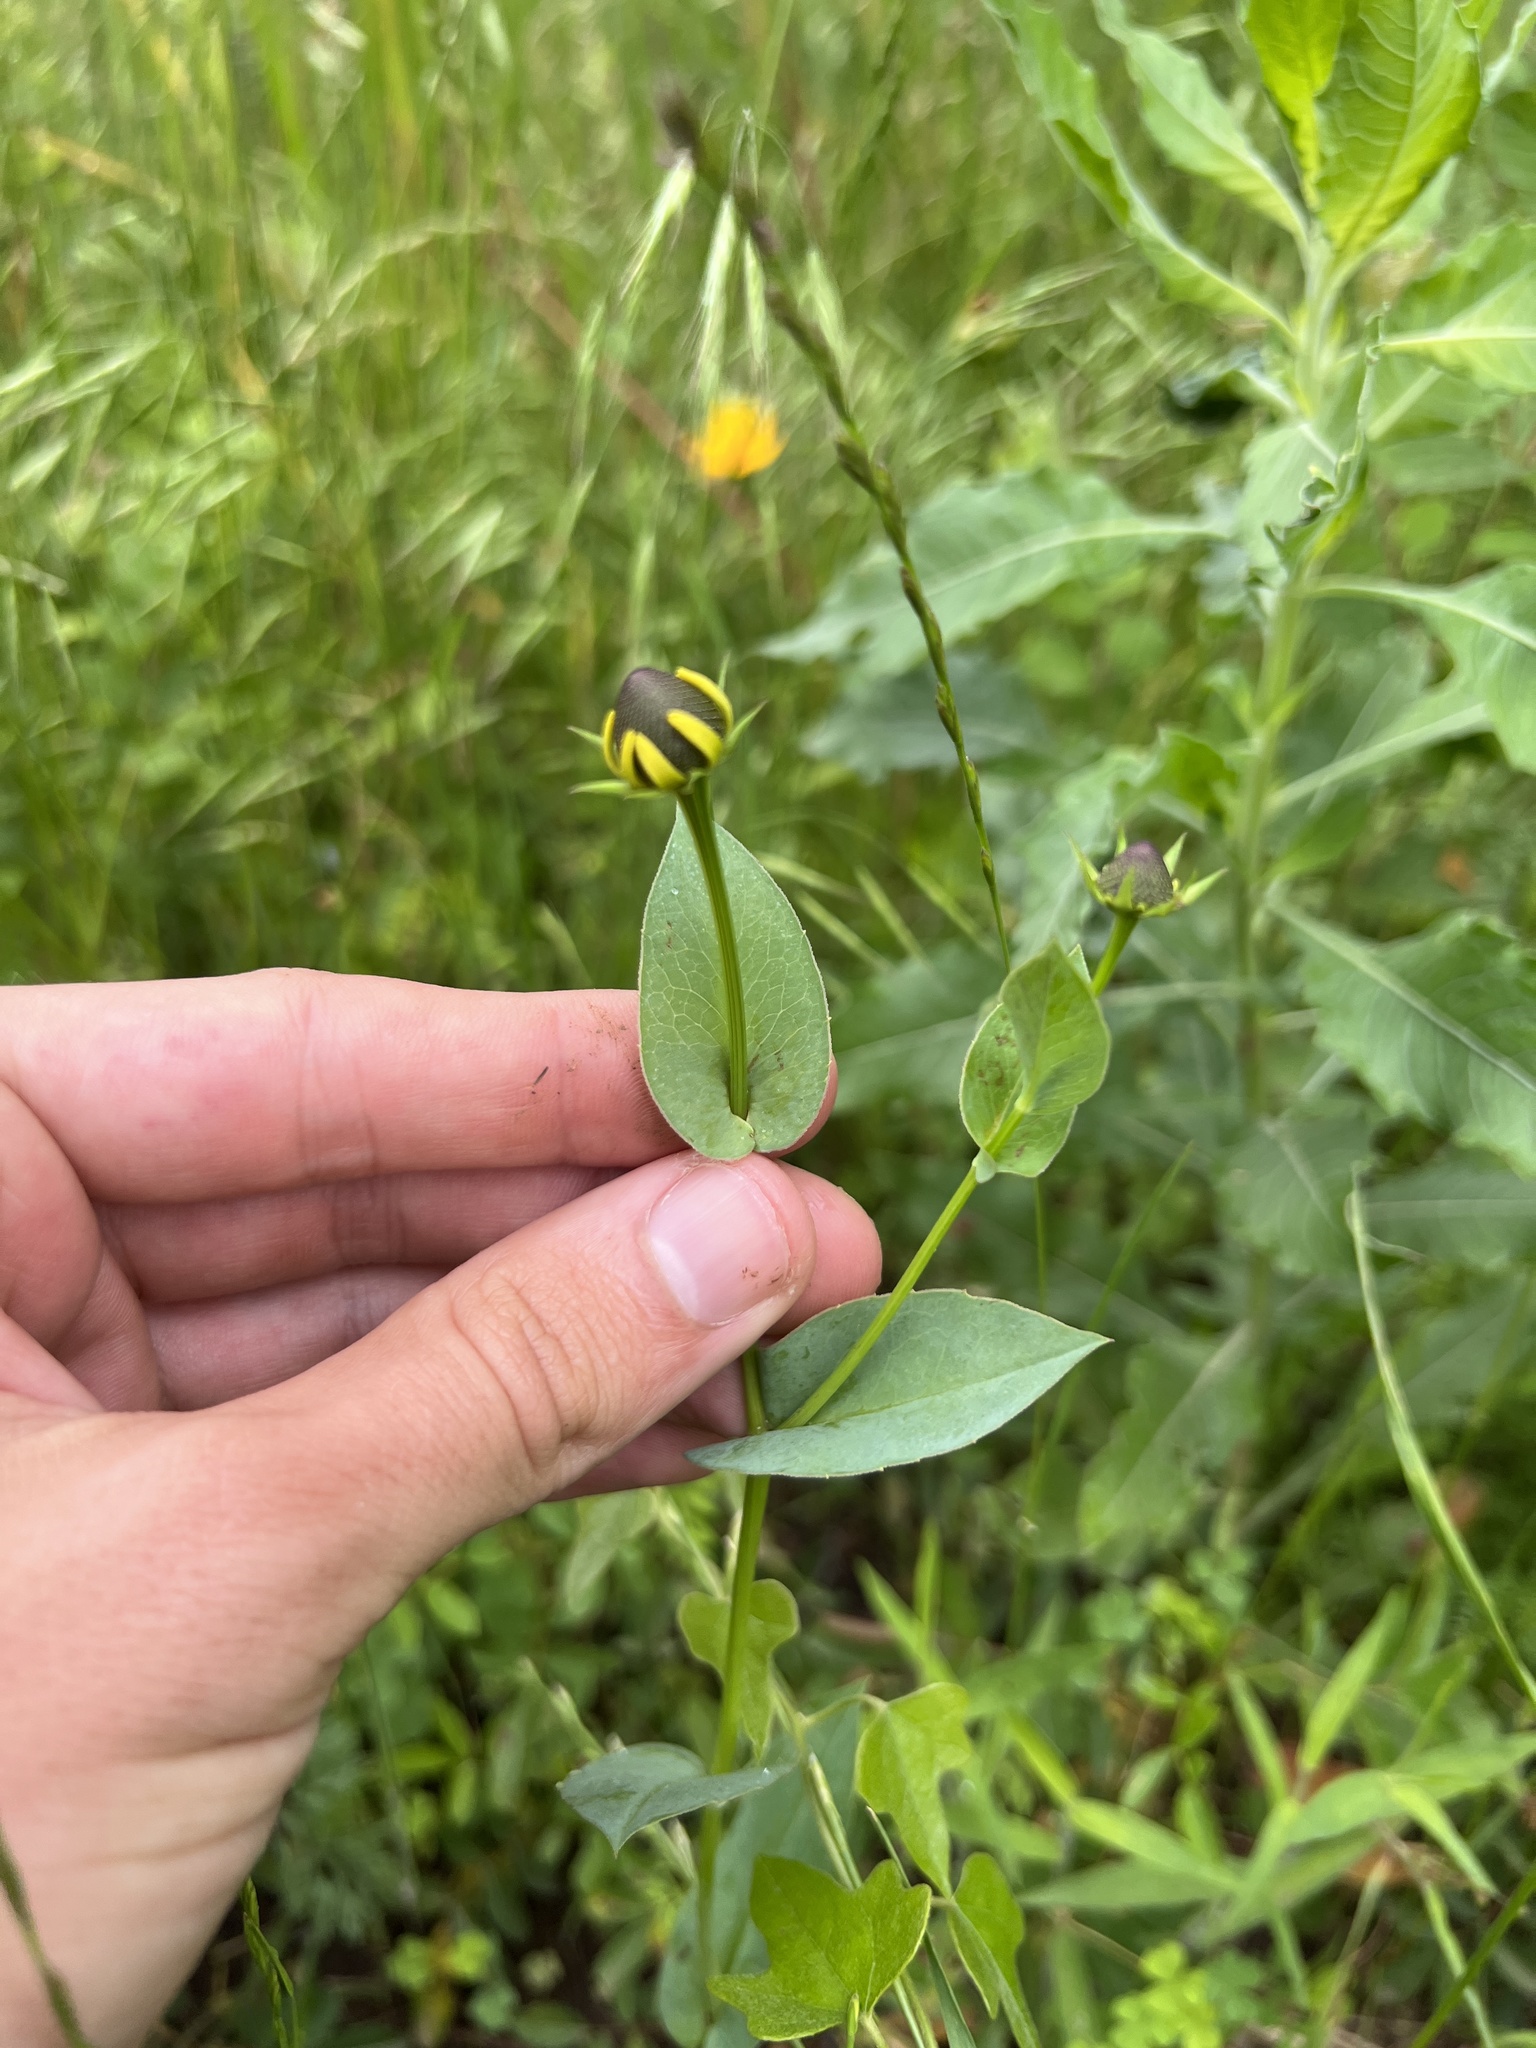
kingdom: Plantae
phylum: Tracheophyta
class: Magnoliopsida
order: Asterales
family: Asteraceae
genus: Rudbeckia
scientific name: Rudbeckia amplexicaulis
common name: Clasping-leaf coneflower
